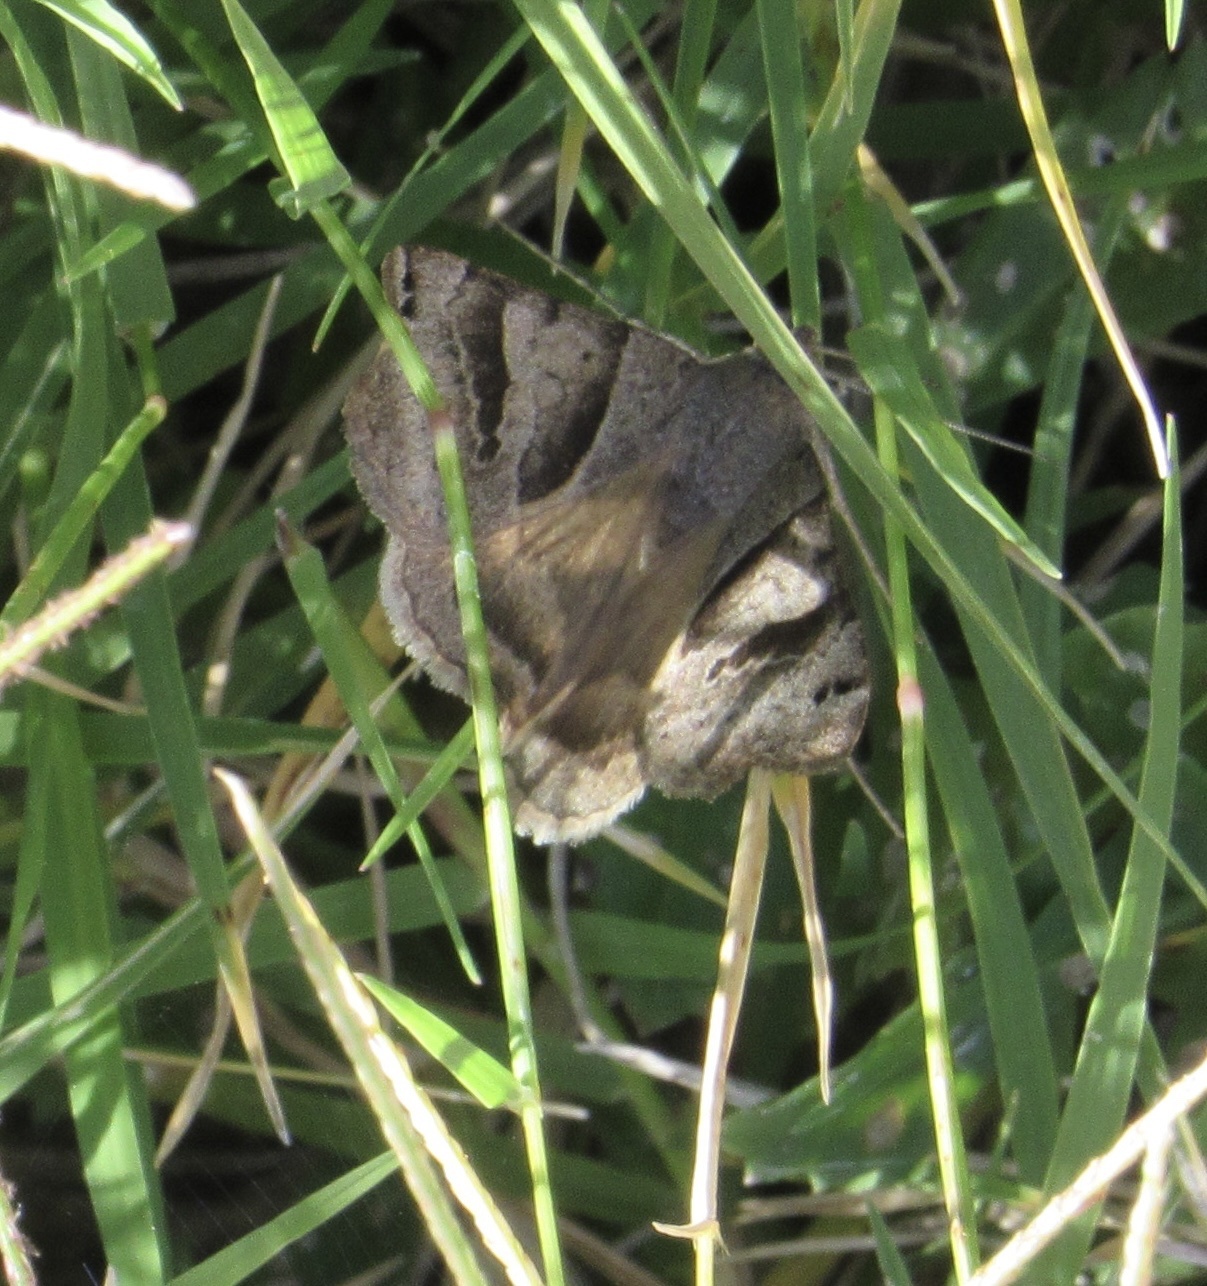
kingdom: Animalia
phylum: Arthropoda
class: Insecta
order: Lepidoptera
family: Erebidae
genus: Caenurgina
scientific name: Caenurgina erechtea
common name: Forage looper moth
